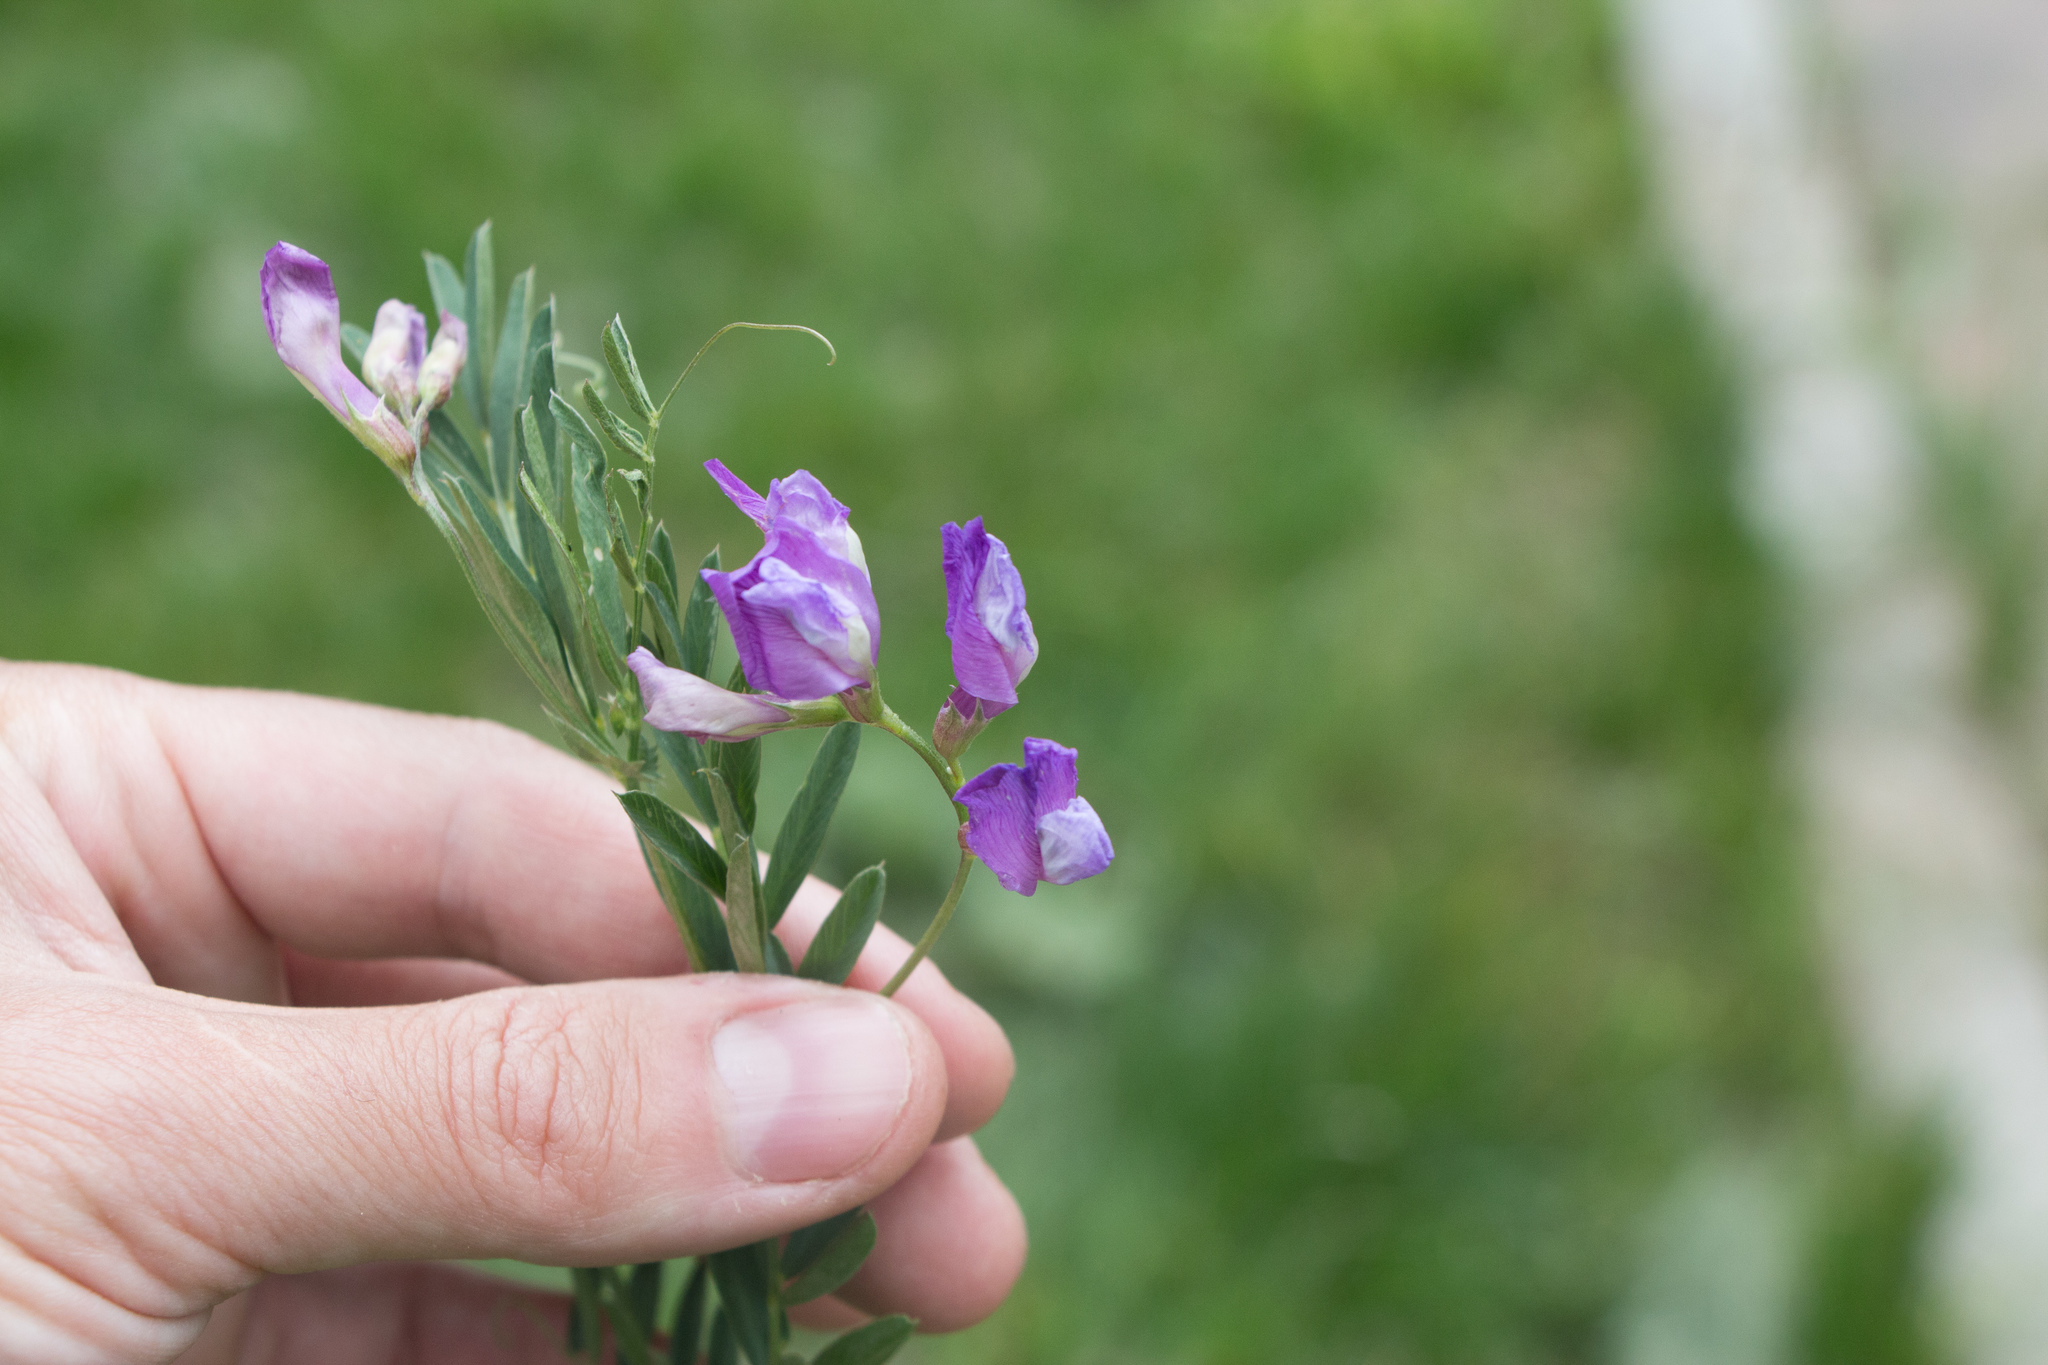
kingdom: Plantae
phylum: Tracheophyta
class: Magnoliopsida
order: Fabales
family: Fabaceae
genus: Vicia
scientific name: Vicia americana
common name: American vetch
